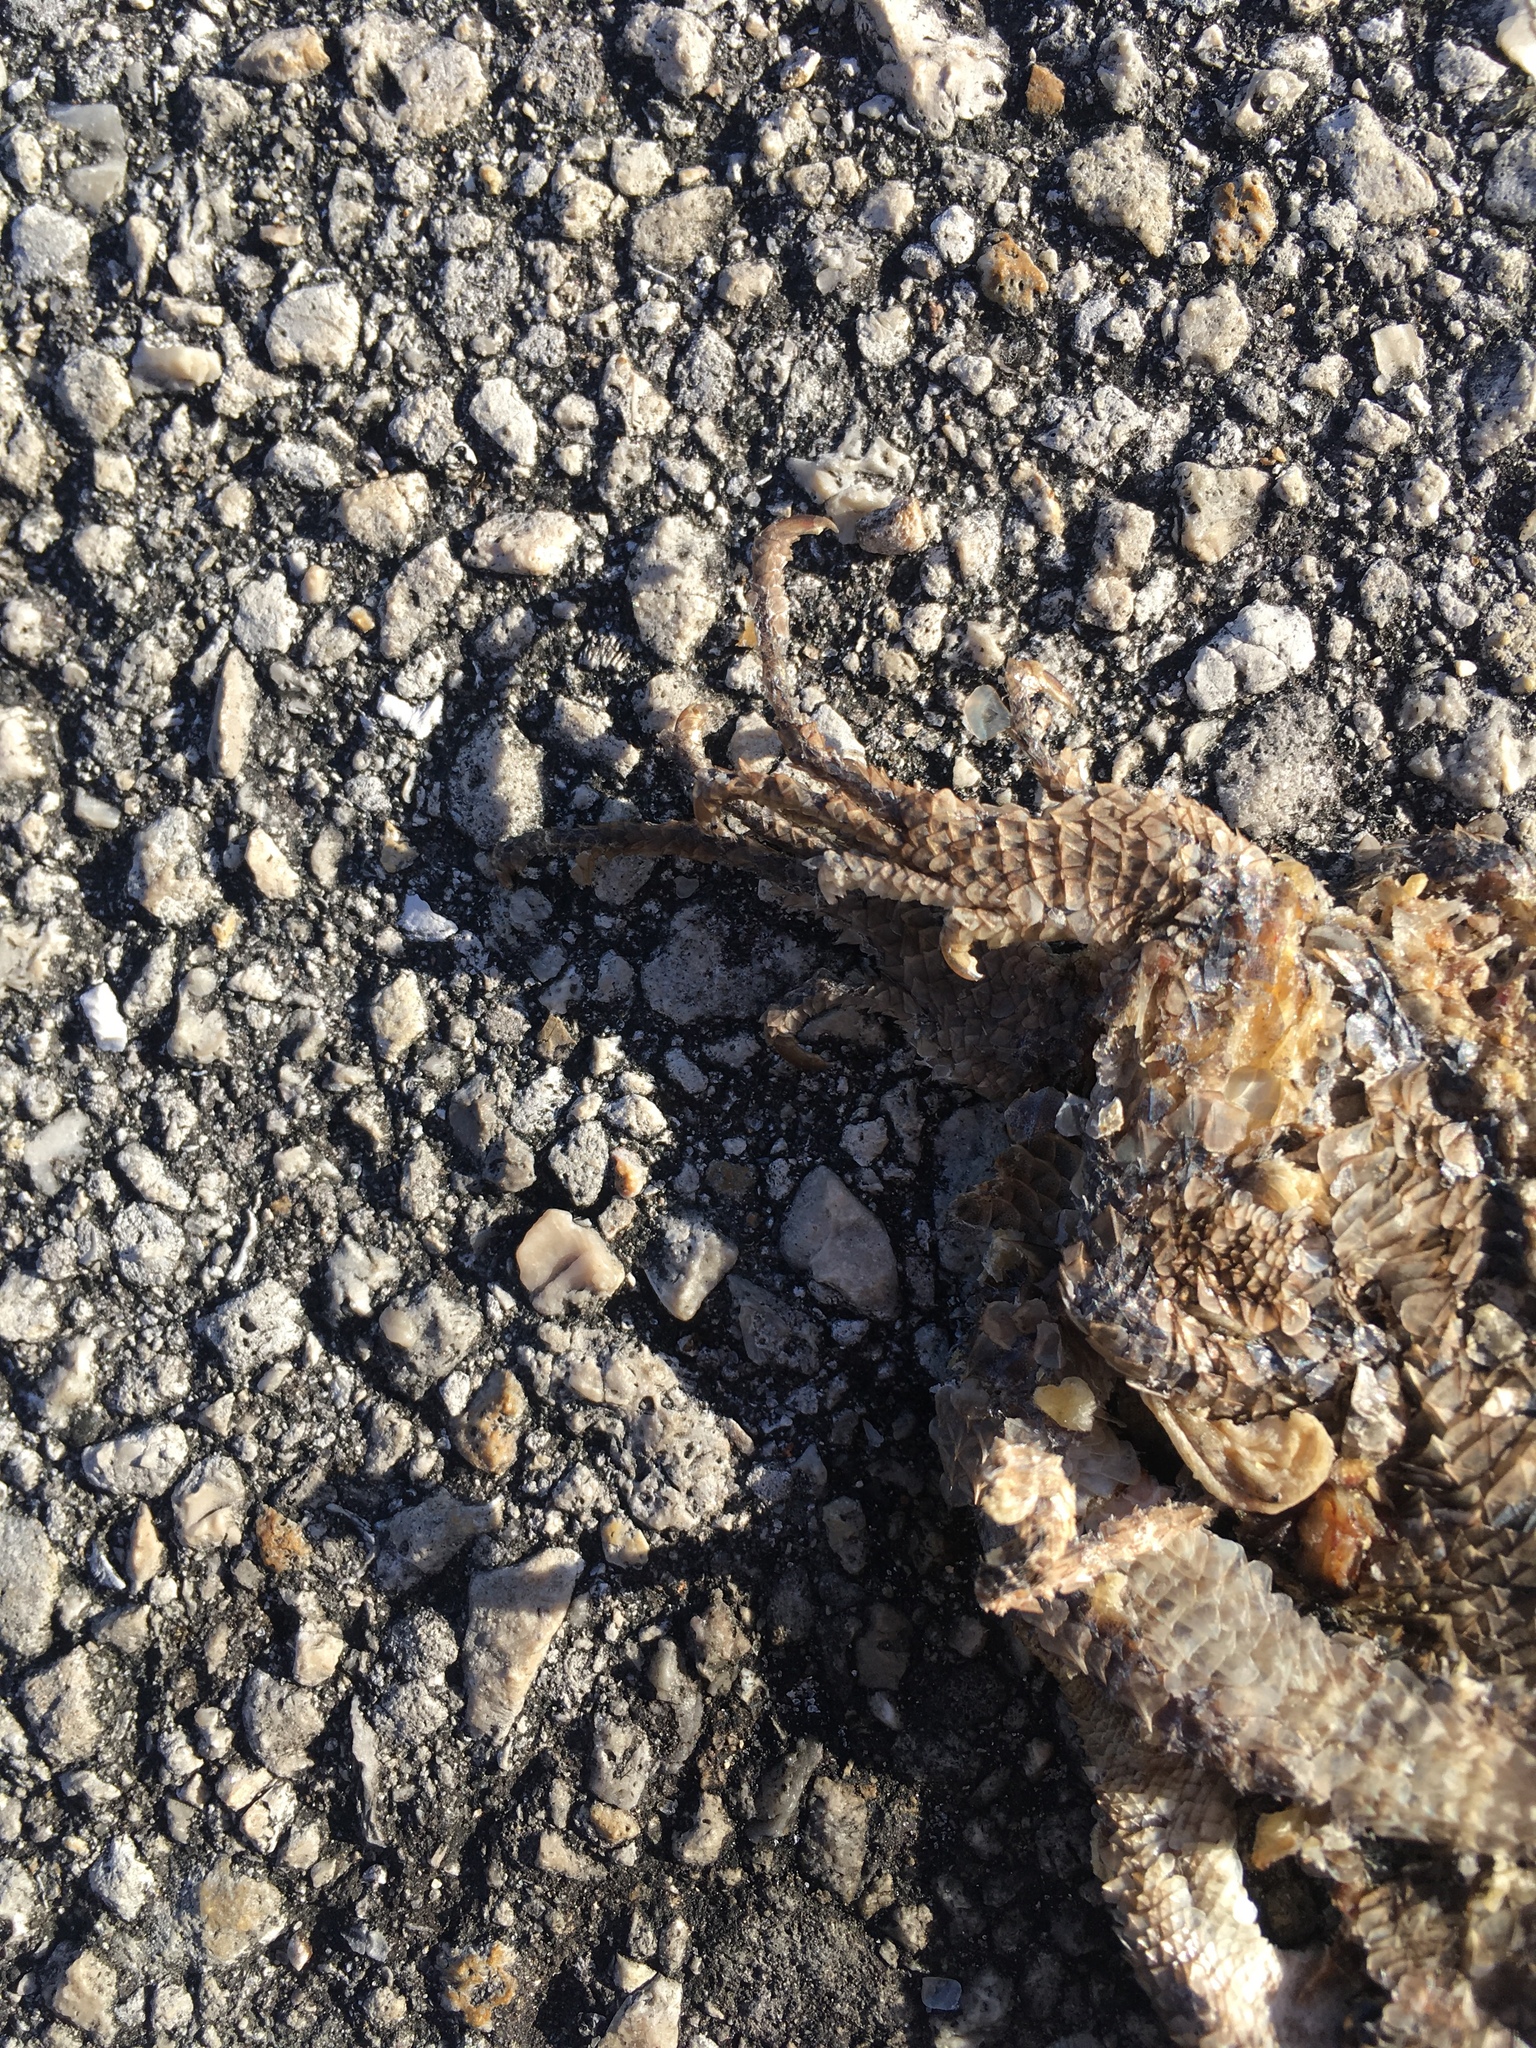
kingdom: Animalia
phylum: Chordata
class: Squamata
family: Leiocephalidae
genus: Leiocephalus
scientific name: Leiocephalus carinatus
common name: Northern curly-tailed lizard
